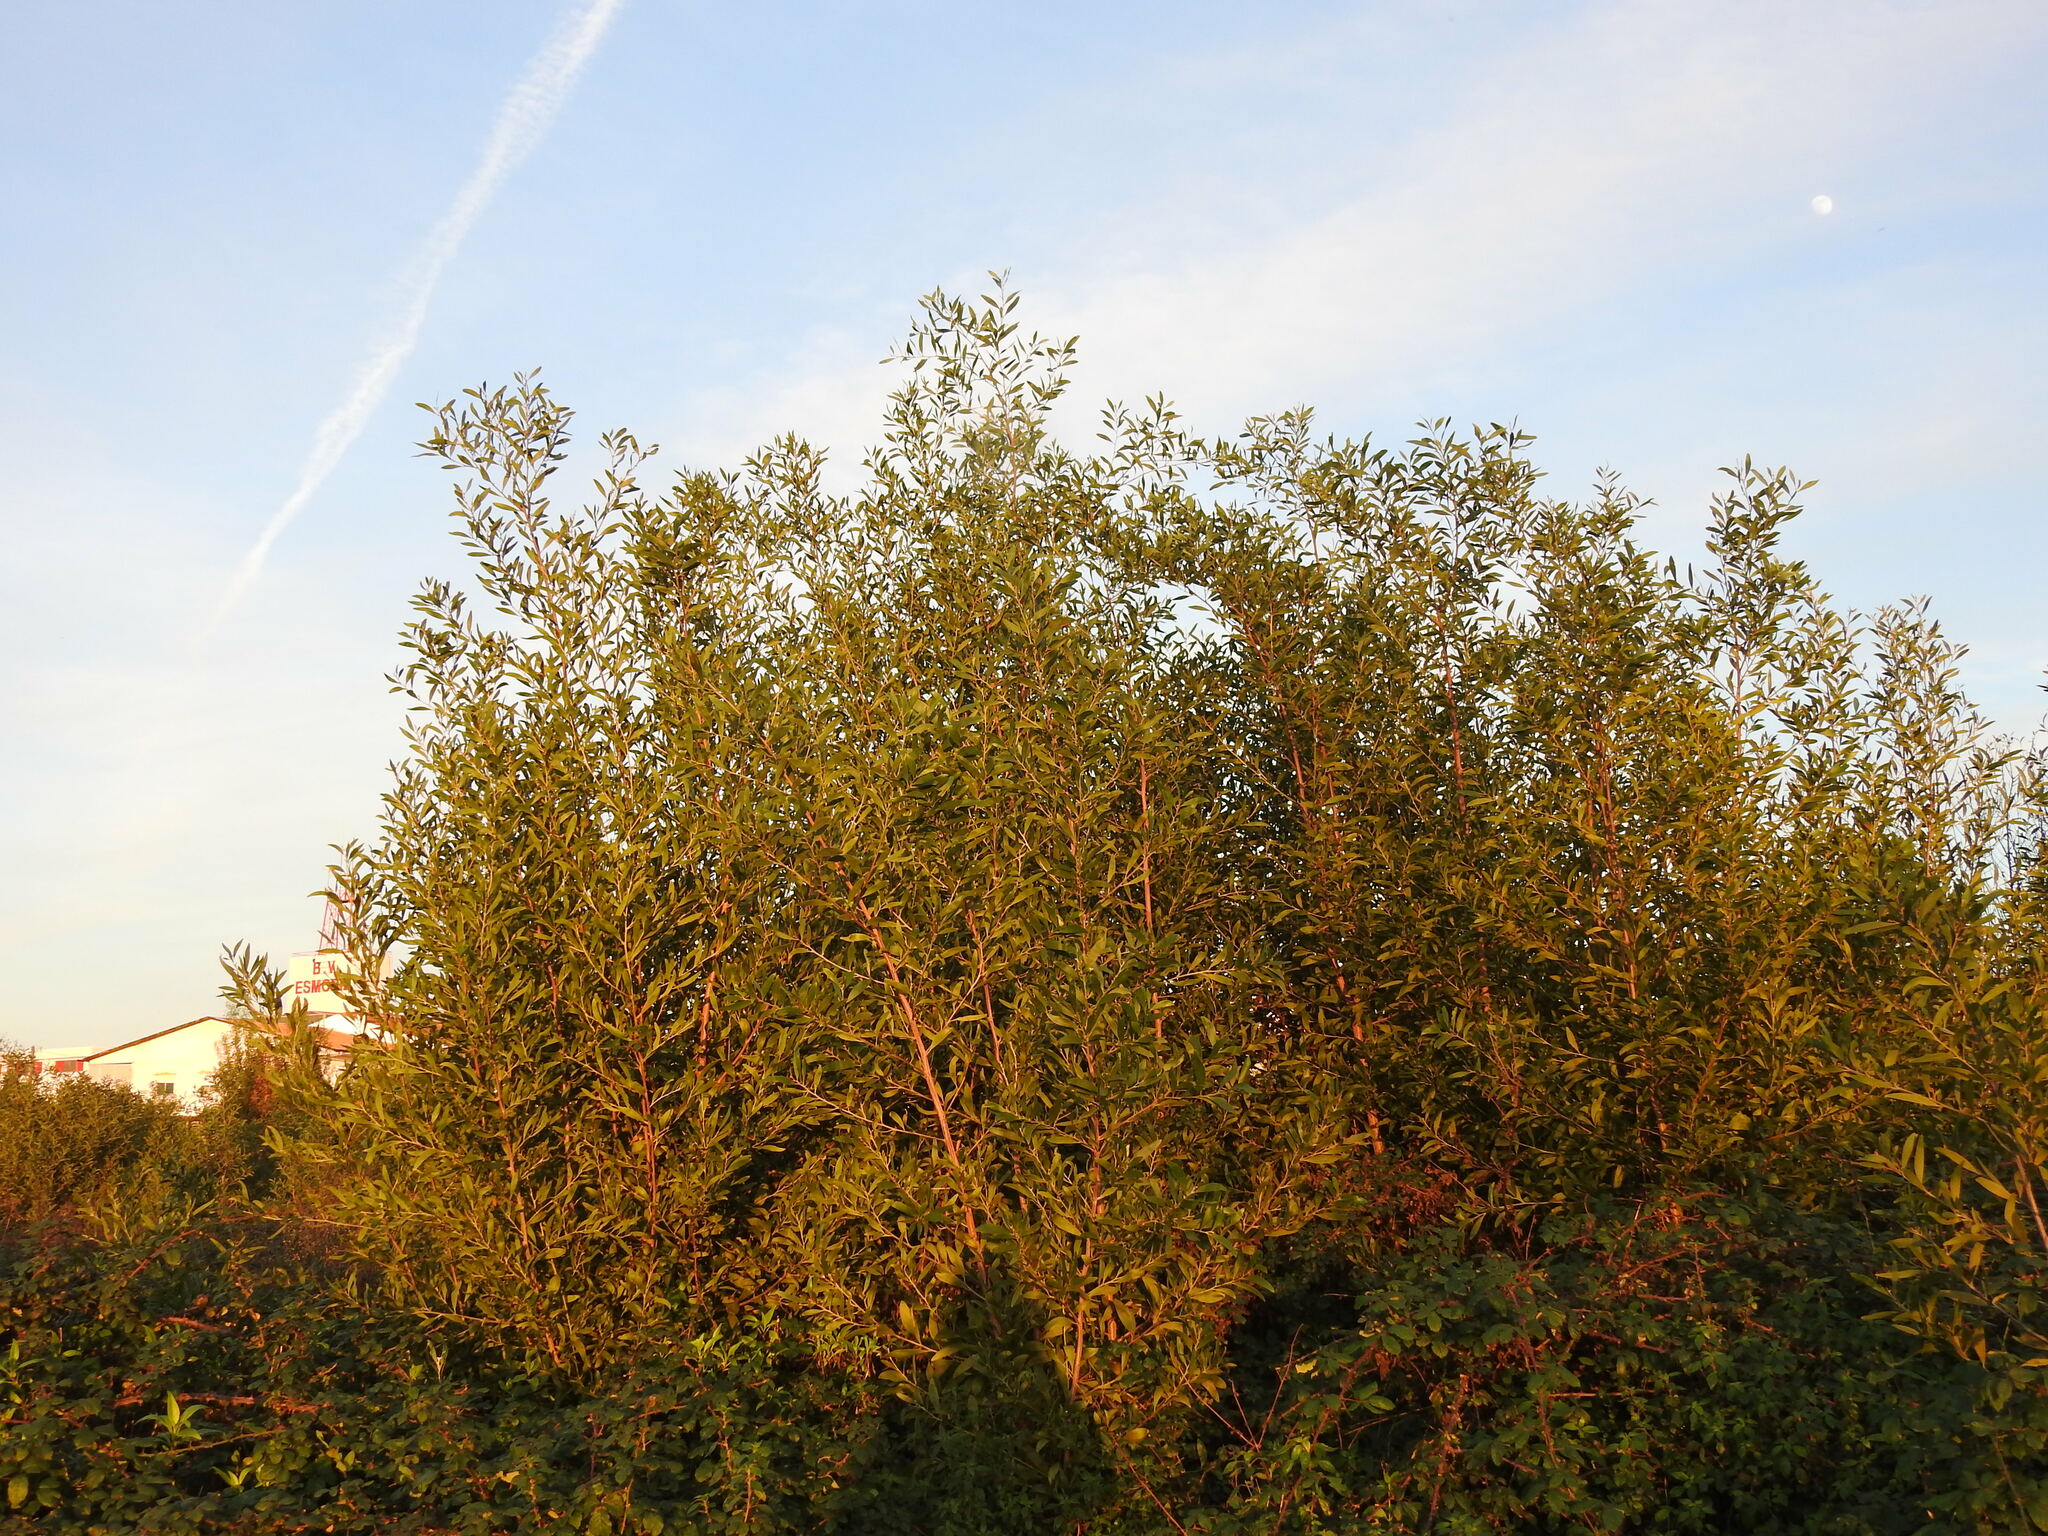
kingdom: Plantae
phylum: Tracheophyta
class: Magnoliopsida
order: Fabales
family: Fabaceae
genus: Acacia
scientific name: Acacia melanoxylon
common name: Blackwood
